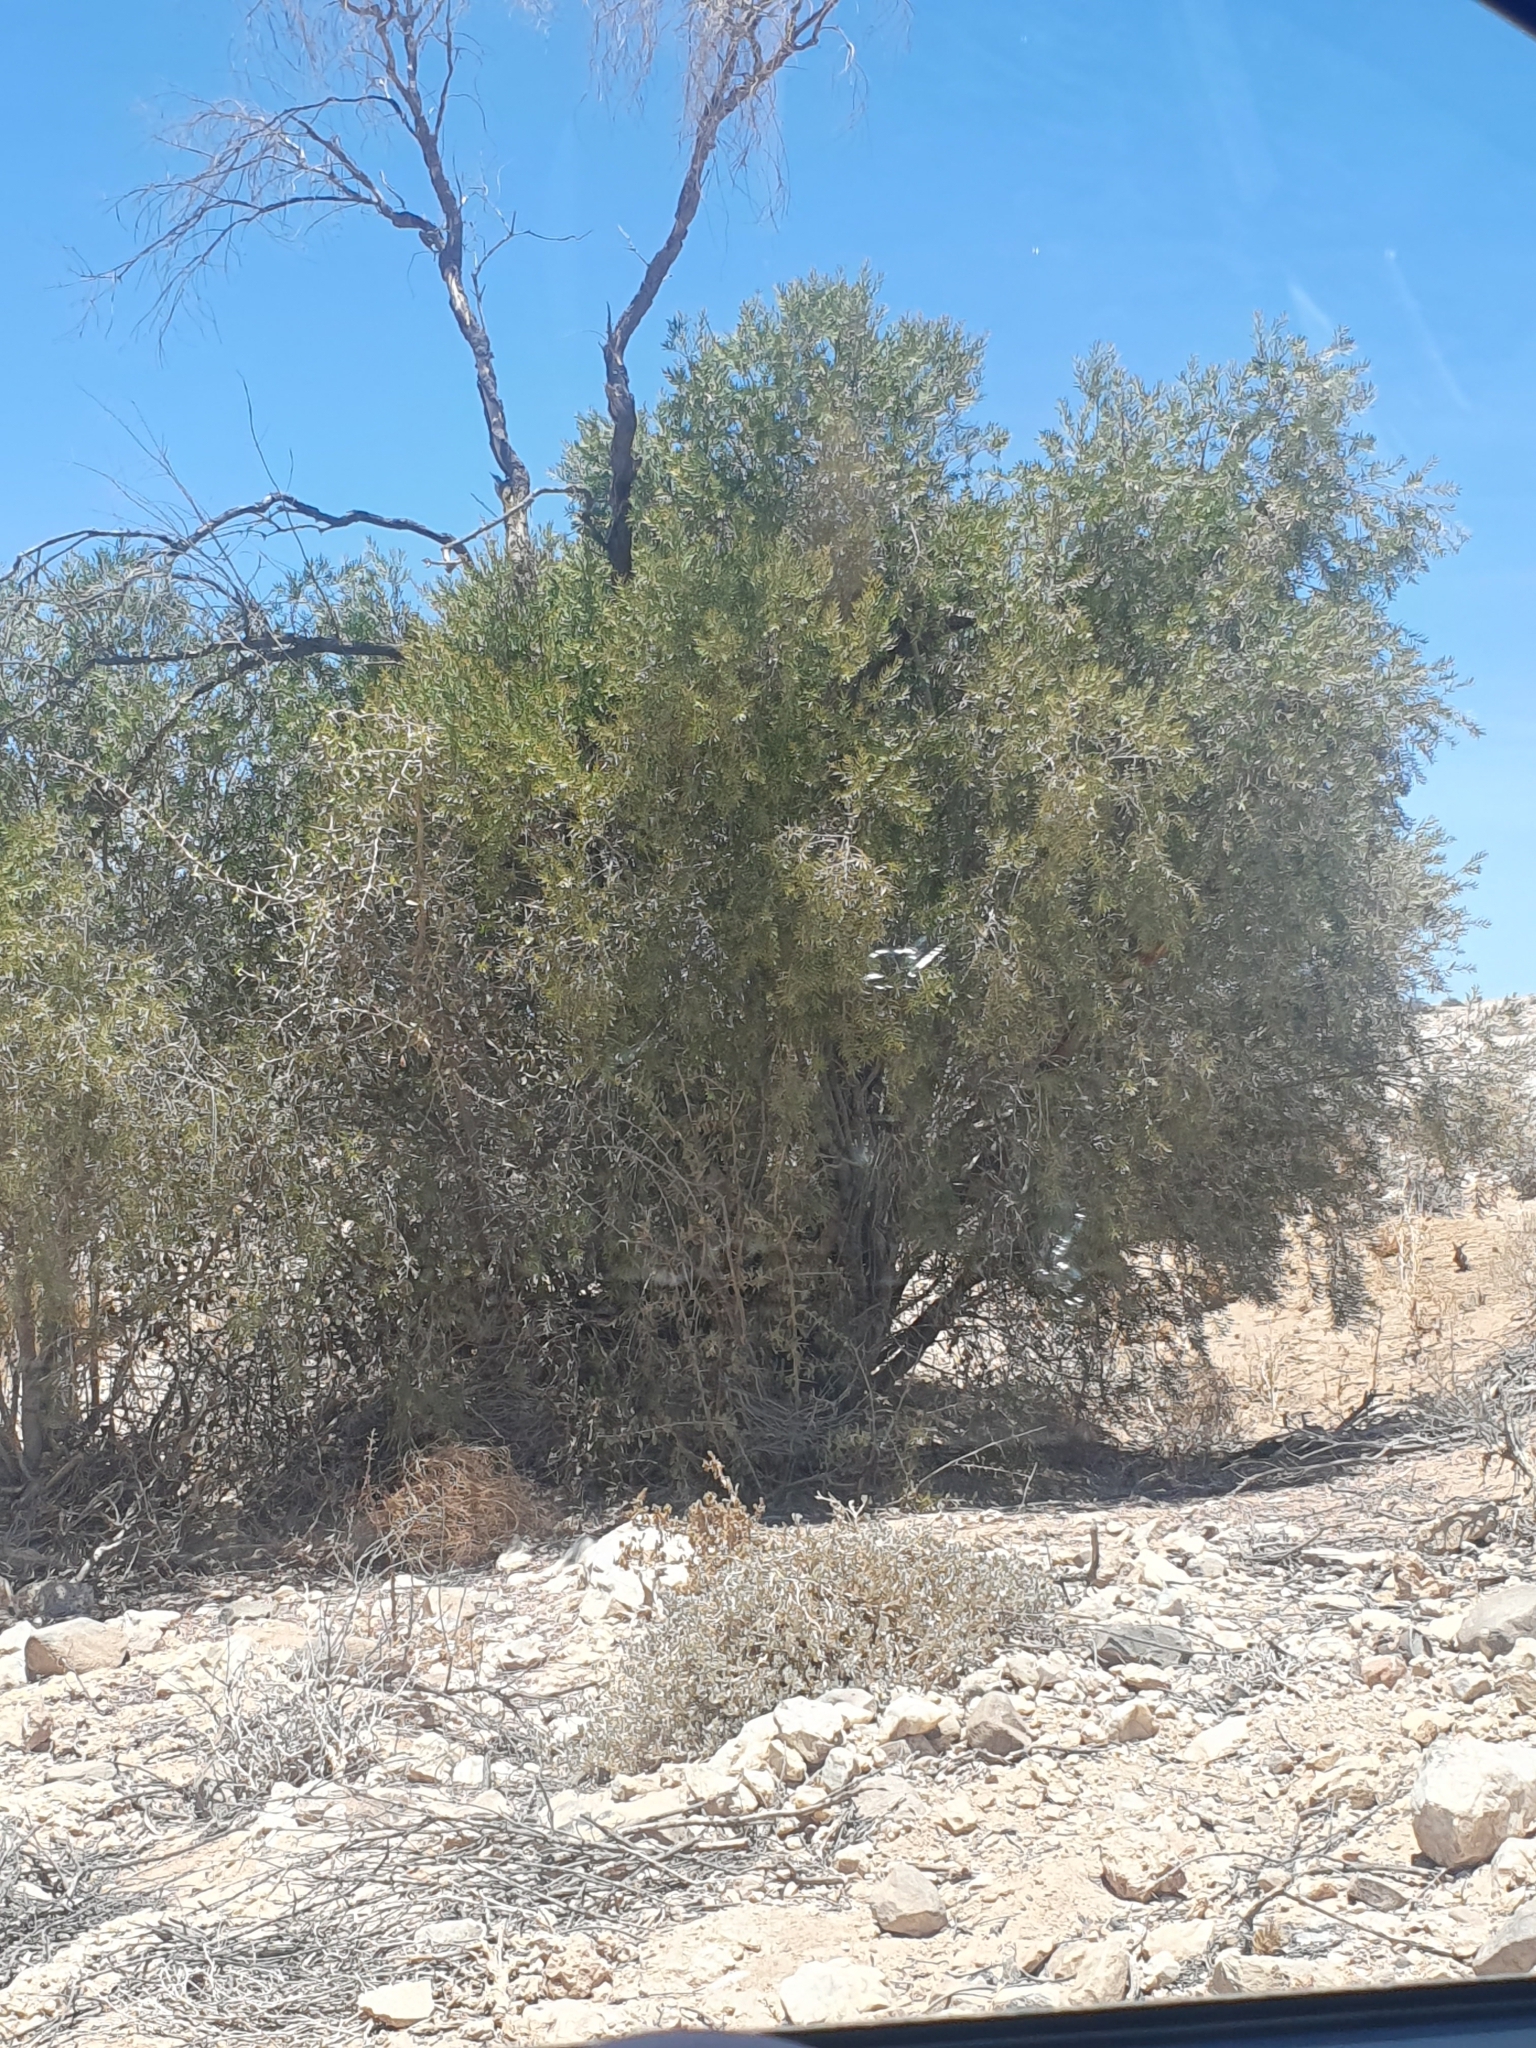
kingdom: Plantae
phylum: Tracheophyta
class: Magnoliopsida
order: Ericales
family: Ebenaceae
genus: Euclea
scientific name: Euclea pseudebenus
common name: Black ebony
